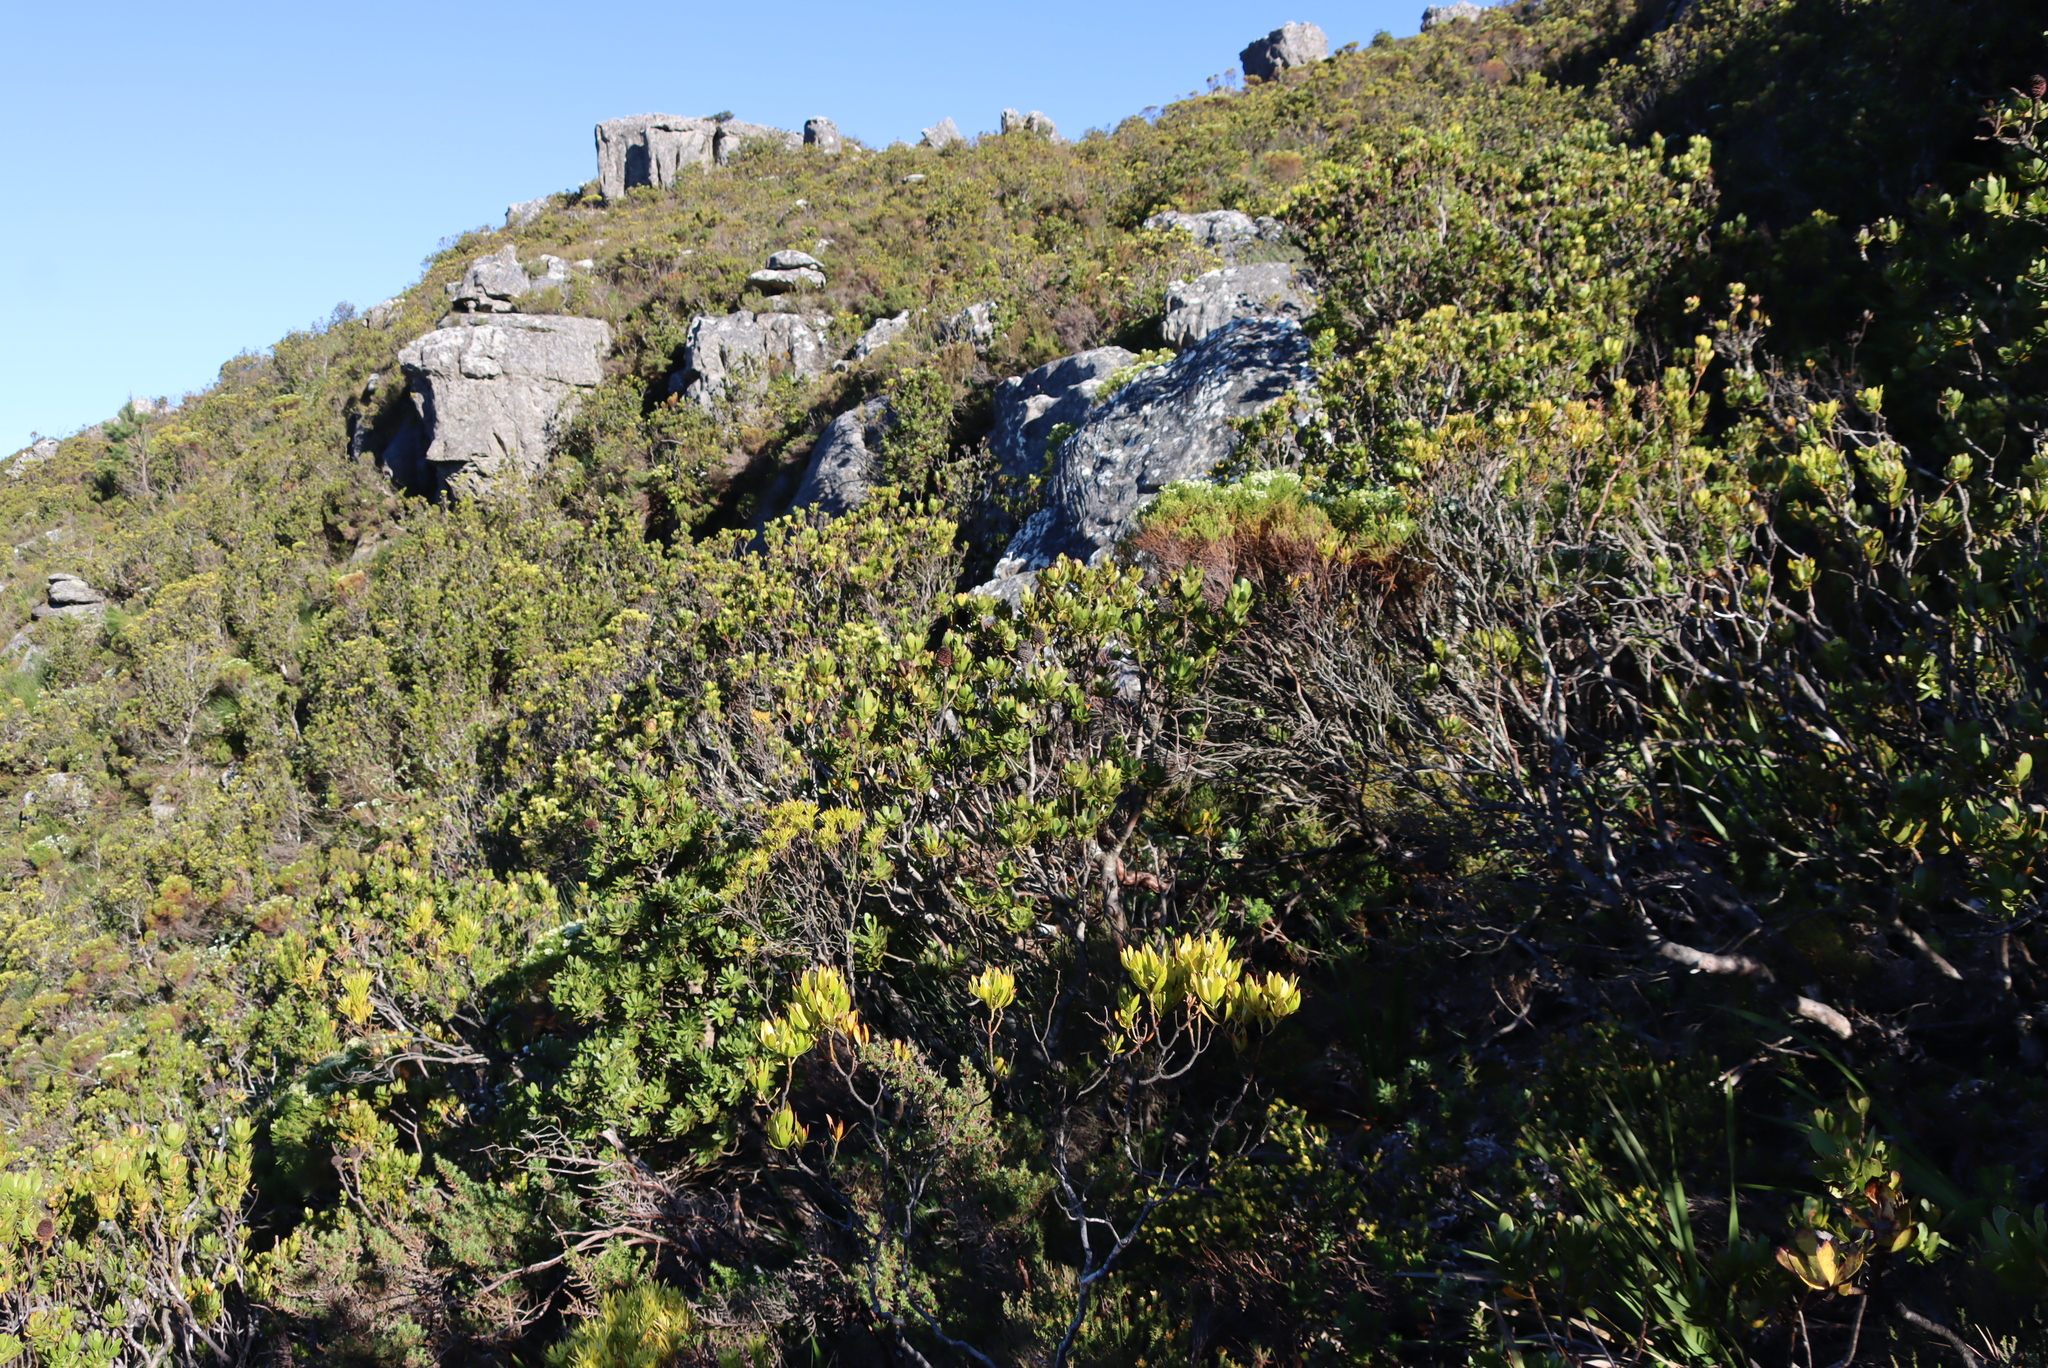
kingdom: Plantae
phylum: Tracheophyta
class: Magnoliopsida
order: Proteales
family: Proteaceae
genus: Leucadendron
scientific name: Leucadendron strobilinum
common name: Mountain rose
